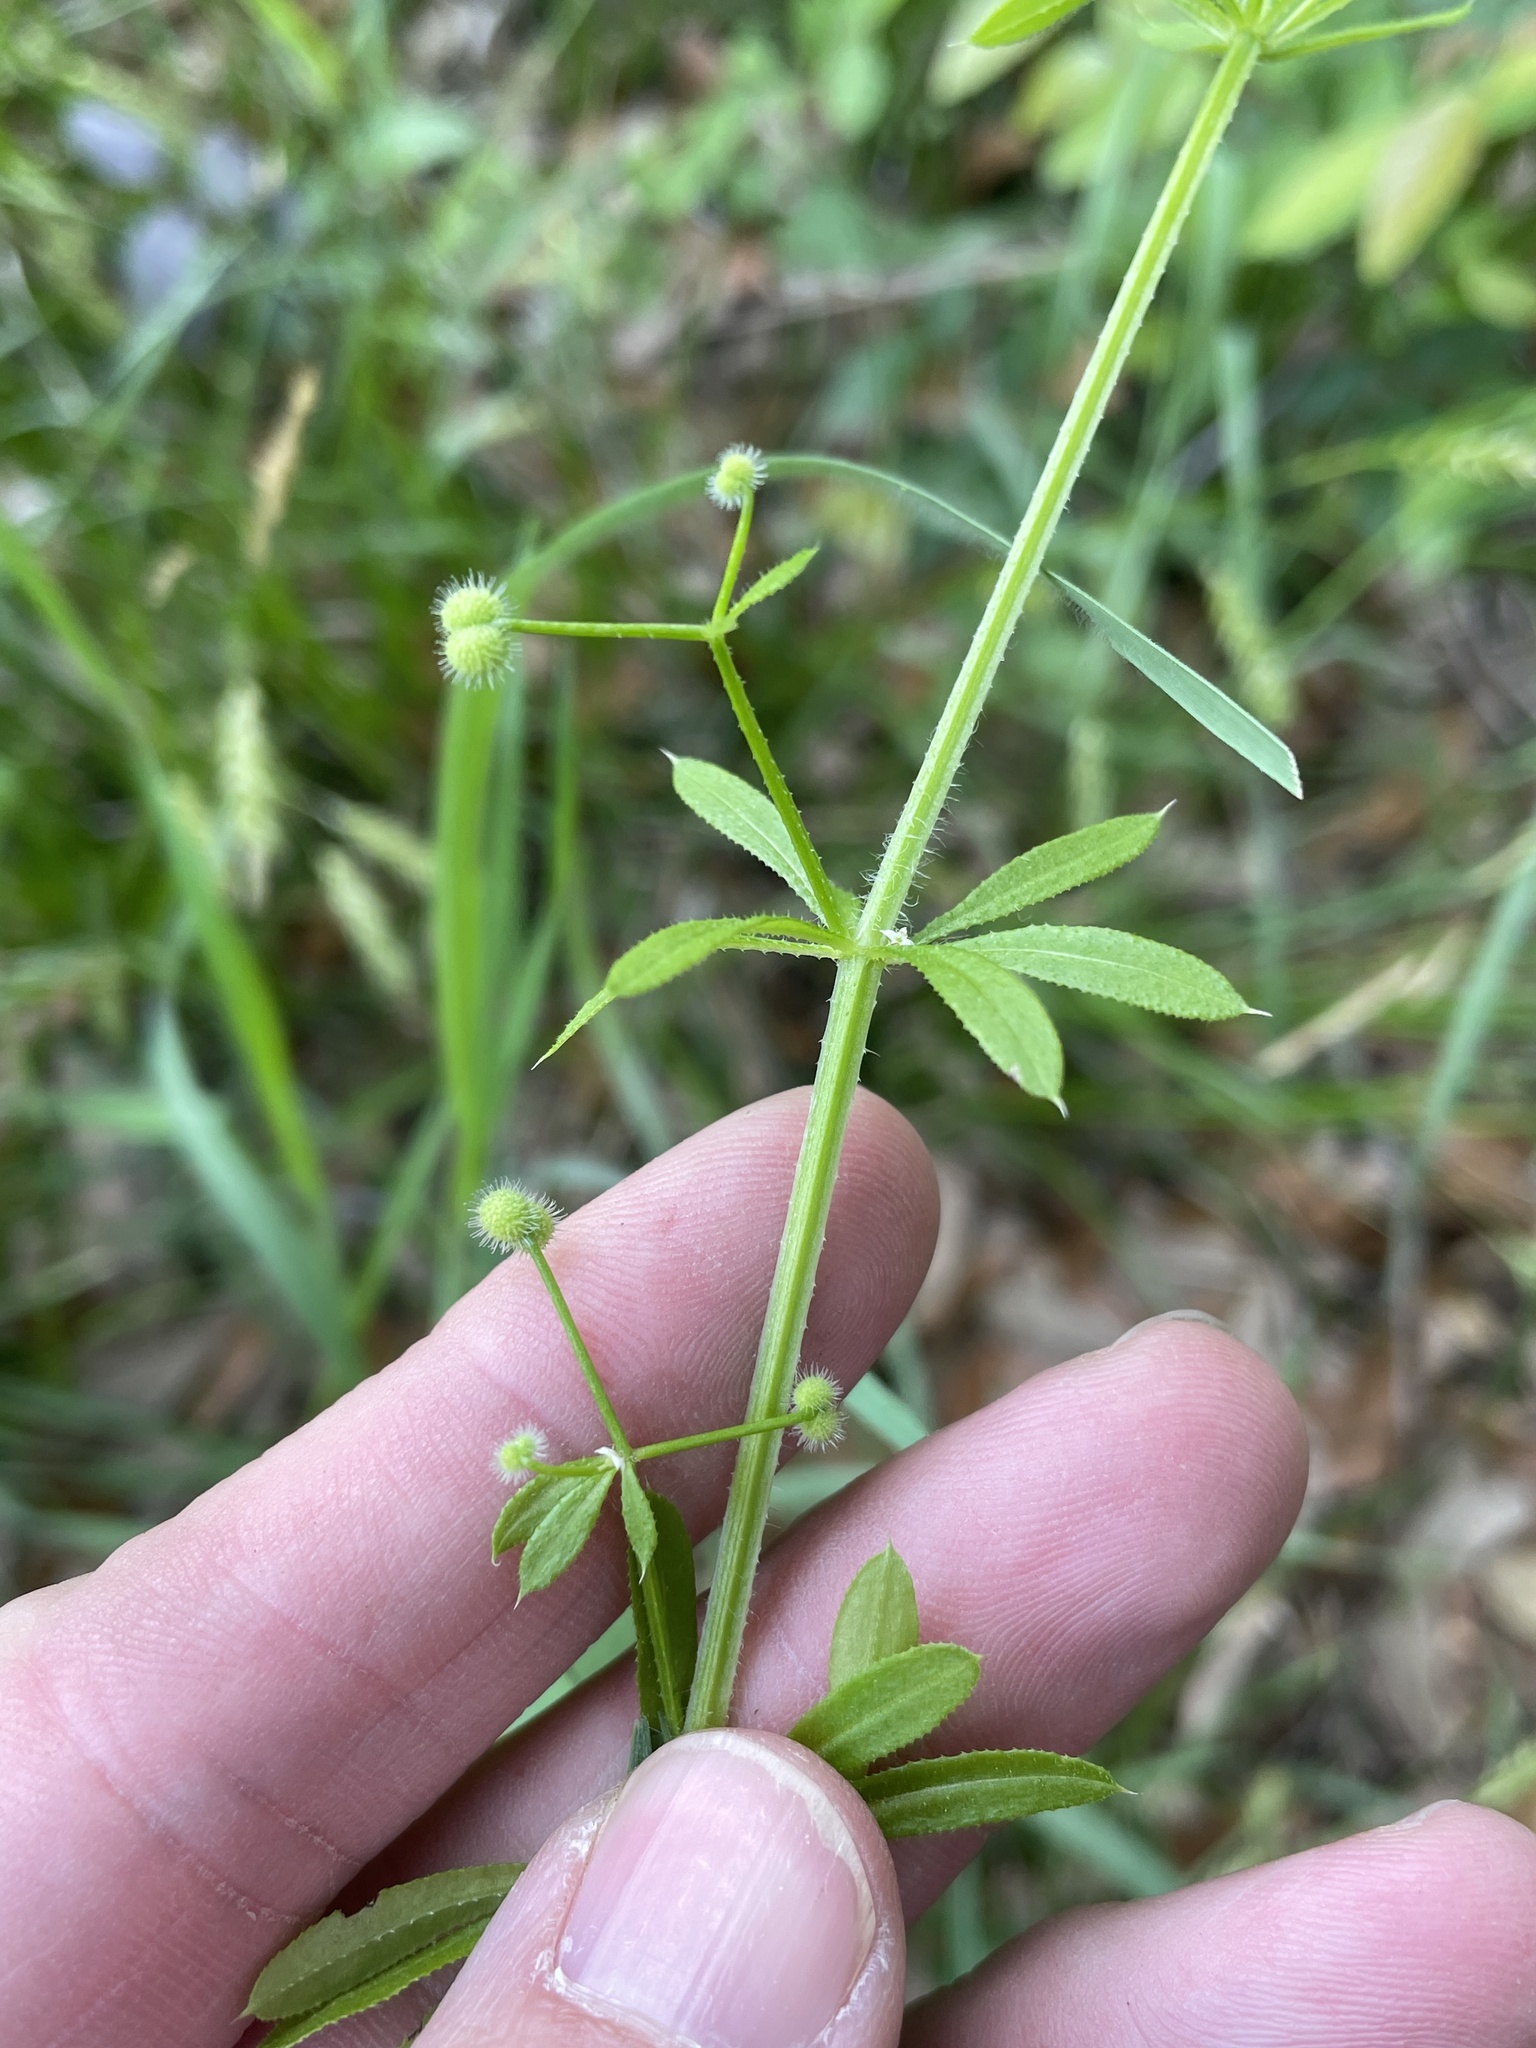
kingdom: Plantae
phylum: Tracheophyta
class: Magnoliopsida
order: Gentianales
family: Rubiaceae
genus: Galium
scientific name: Galium aparine
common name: Cleavers
